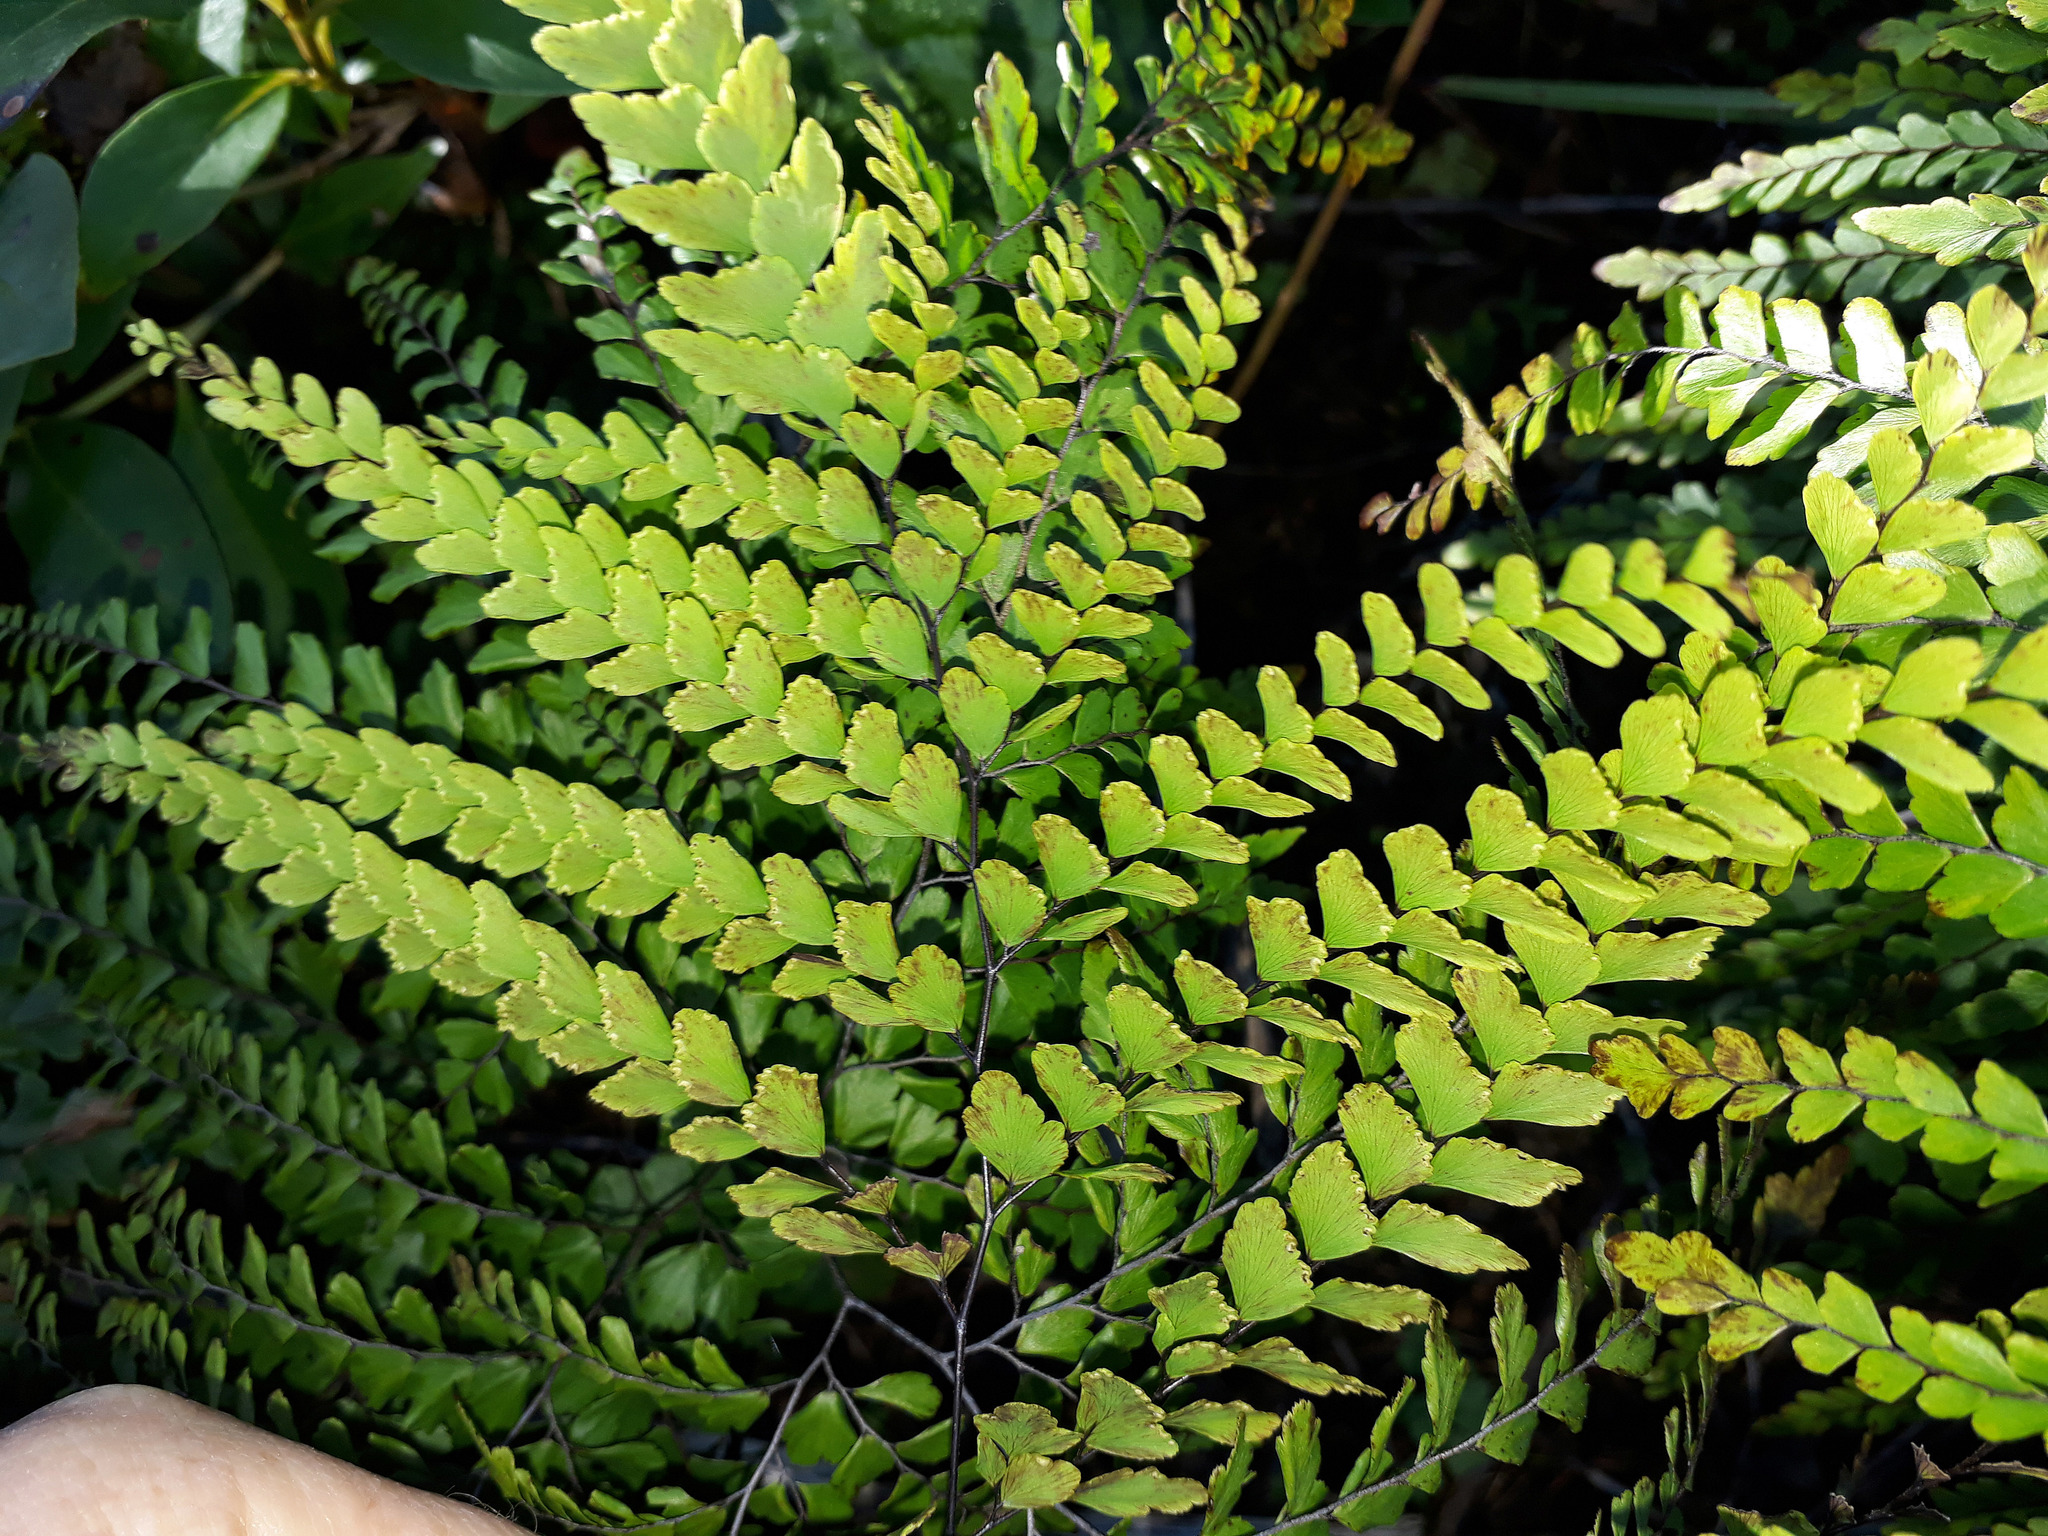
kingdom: Plantae
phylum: Tracheophyta
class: Polypodiopsida
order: Polypodiales
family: Pteridaceae
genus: Adiantum
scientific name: Adiantum formosum
